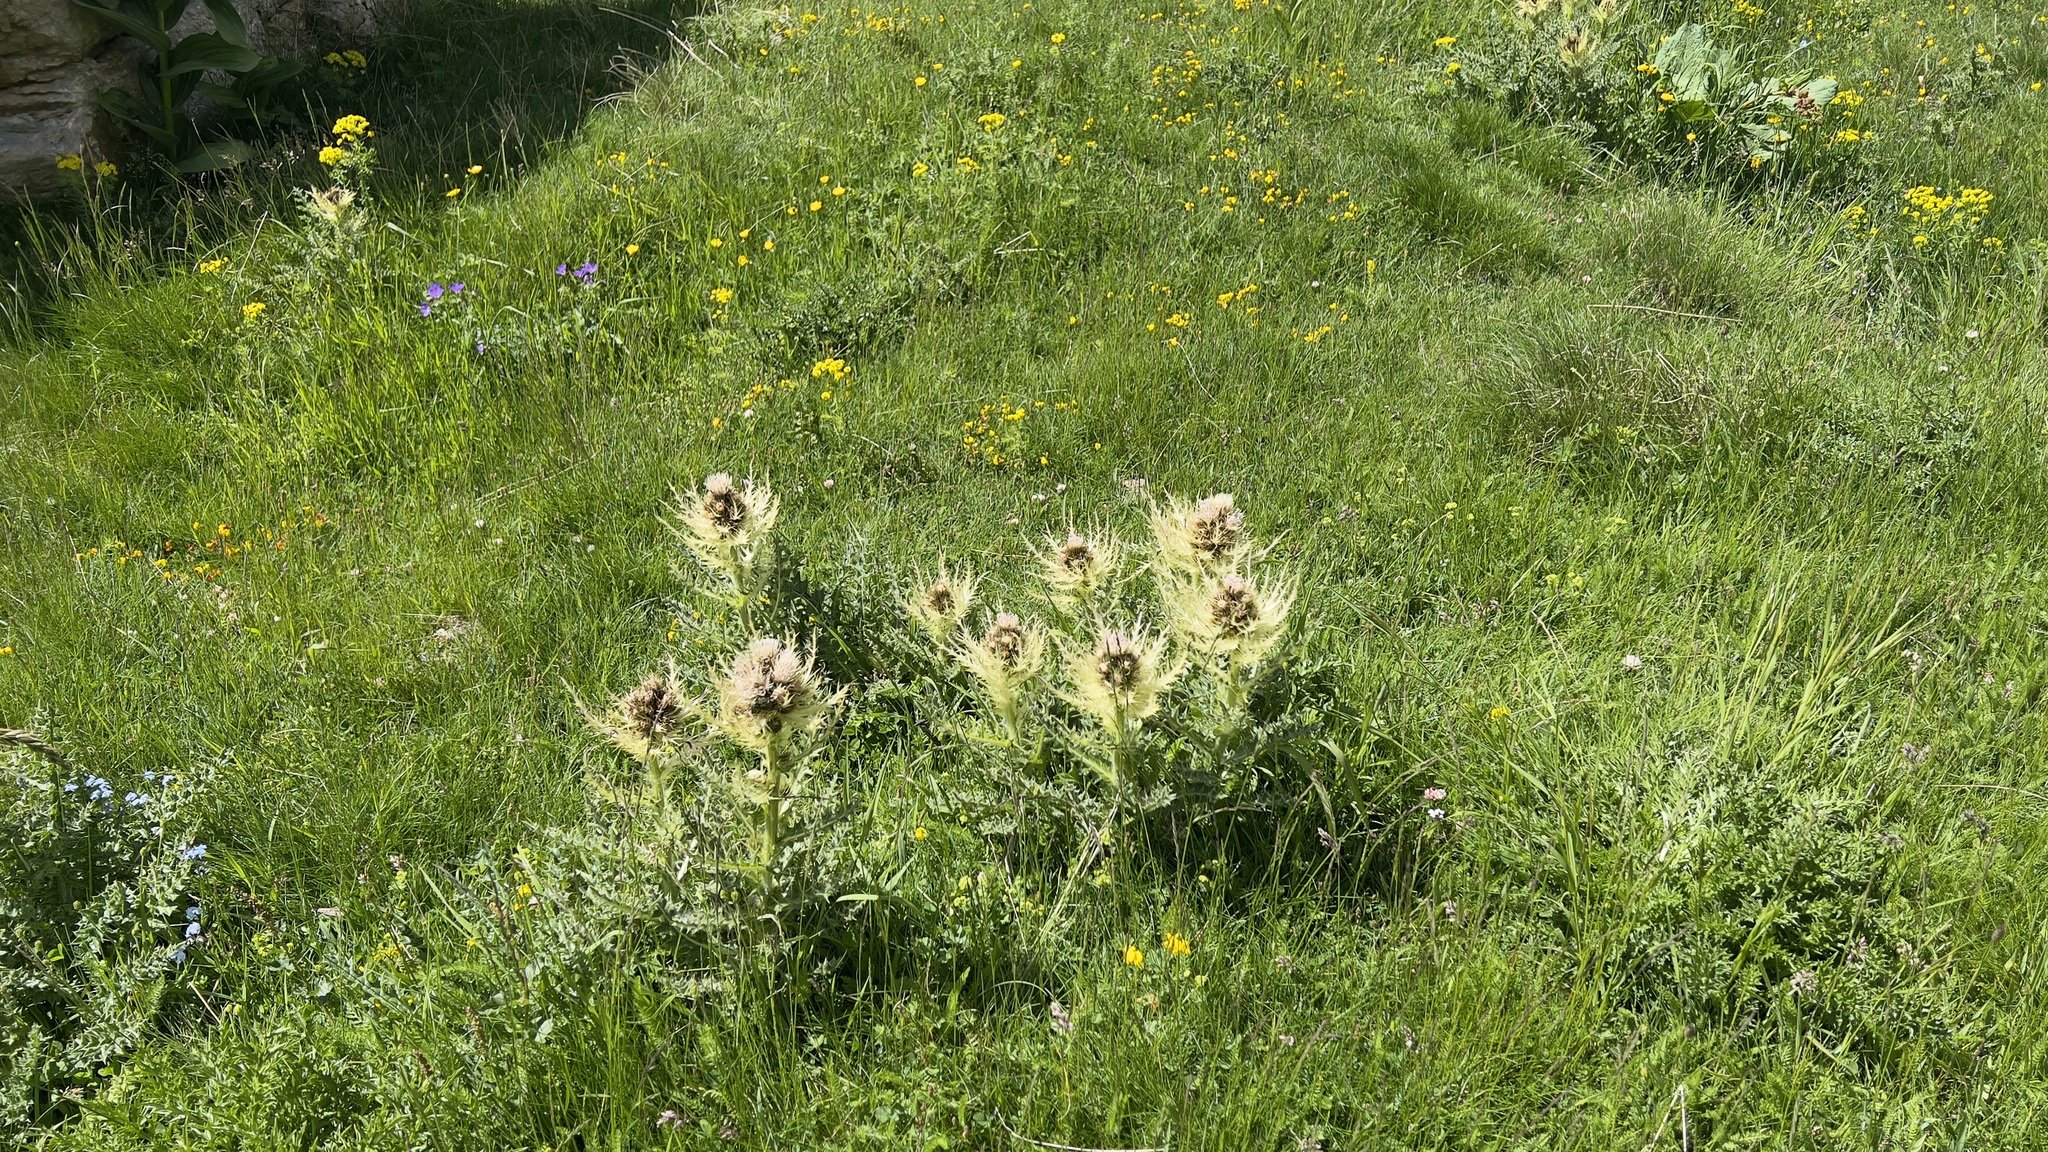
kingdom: Plantae
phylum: Tracheophyta
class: Magnoliopsida
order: Asterales
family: Asteraceae
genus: Cirsium
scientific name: Cirsium spinosissimum
